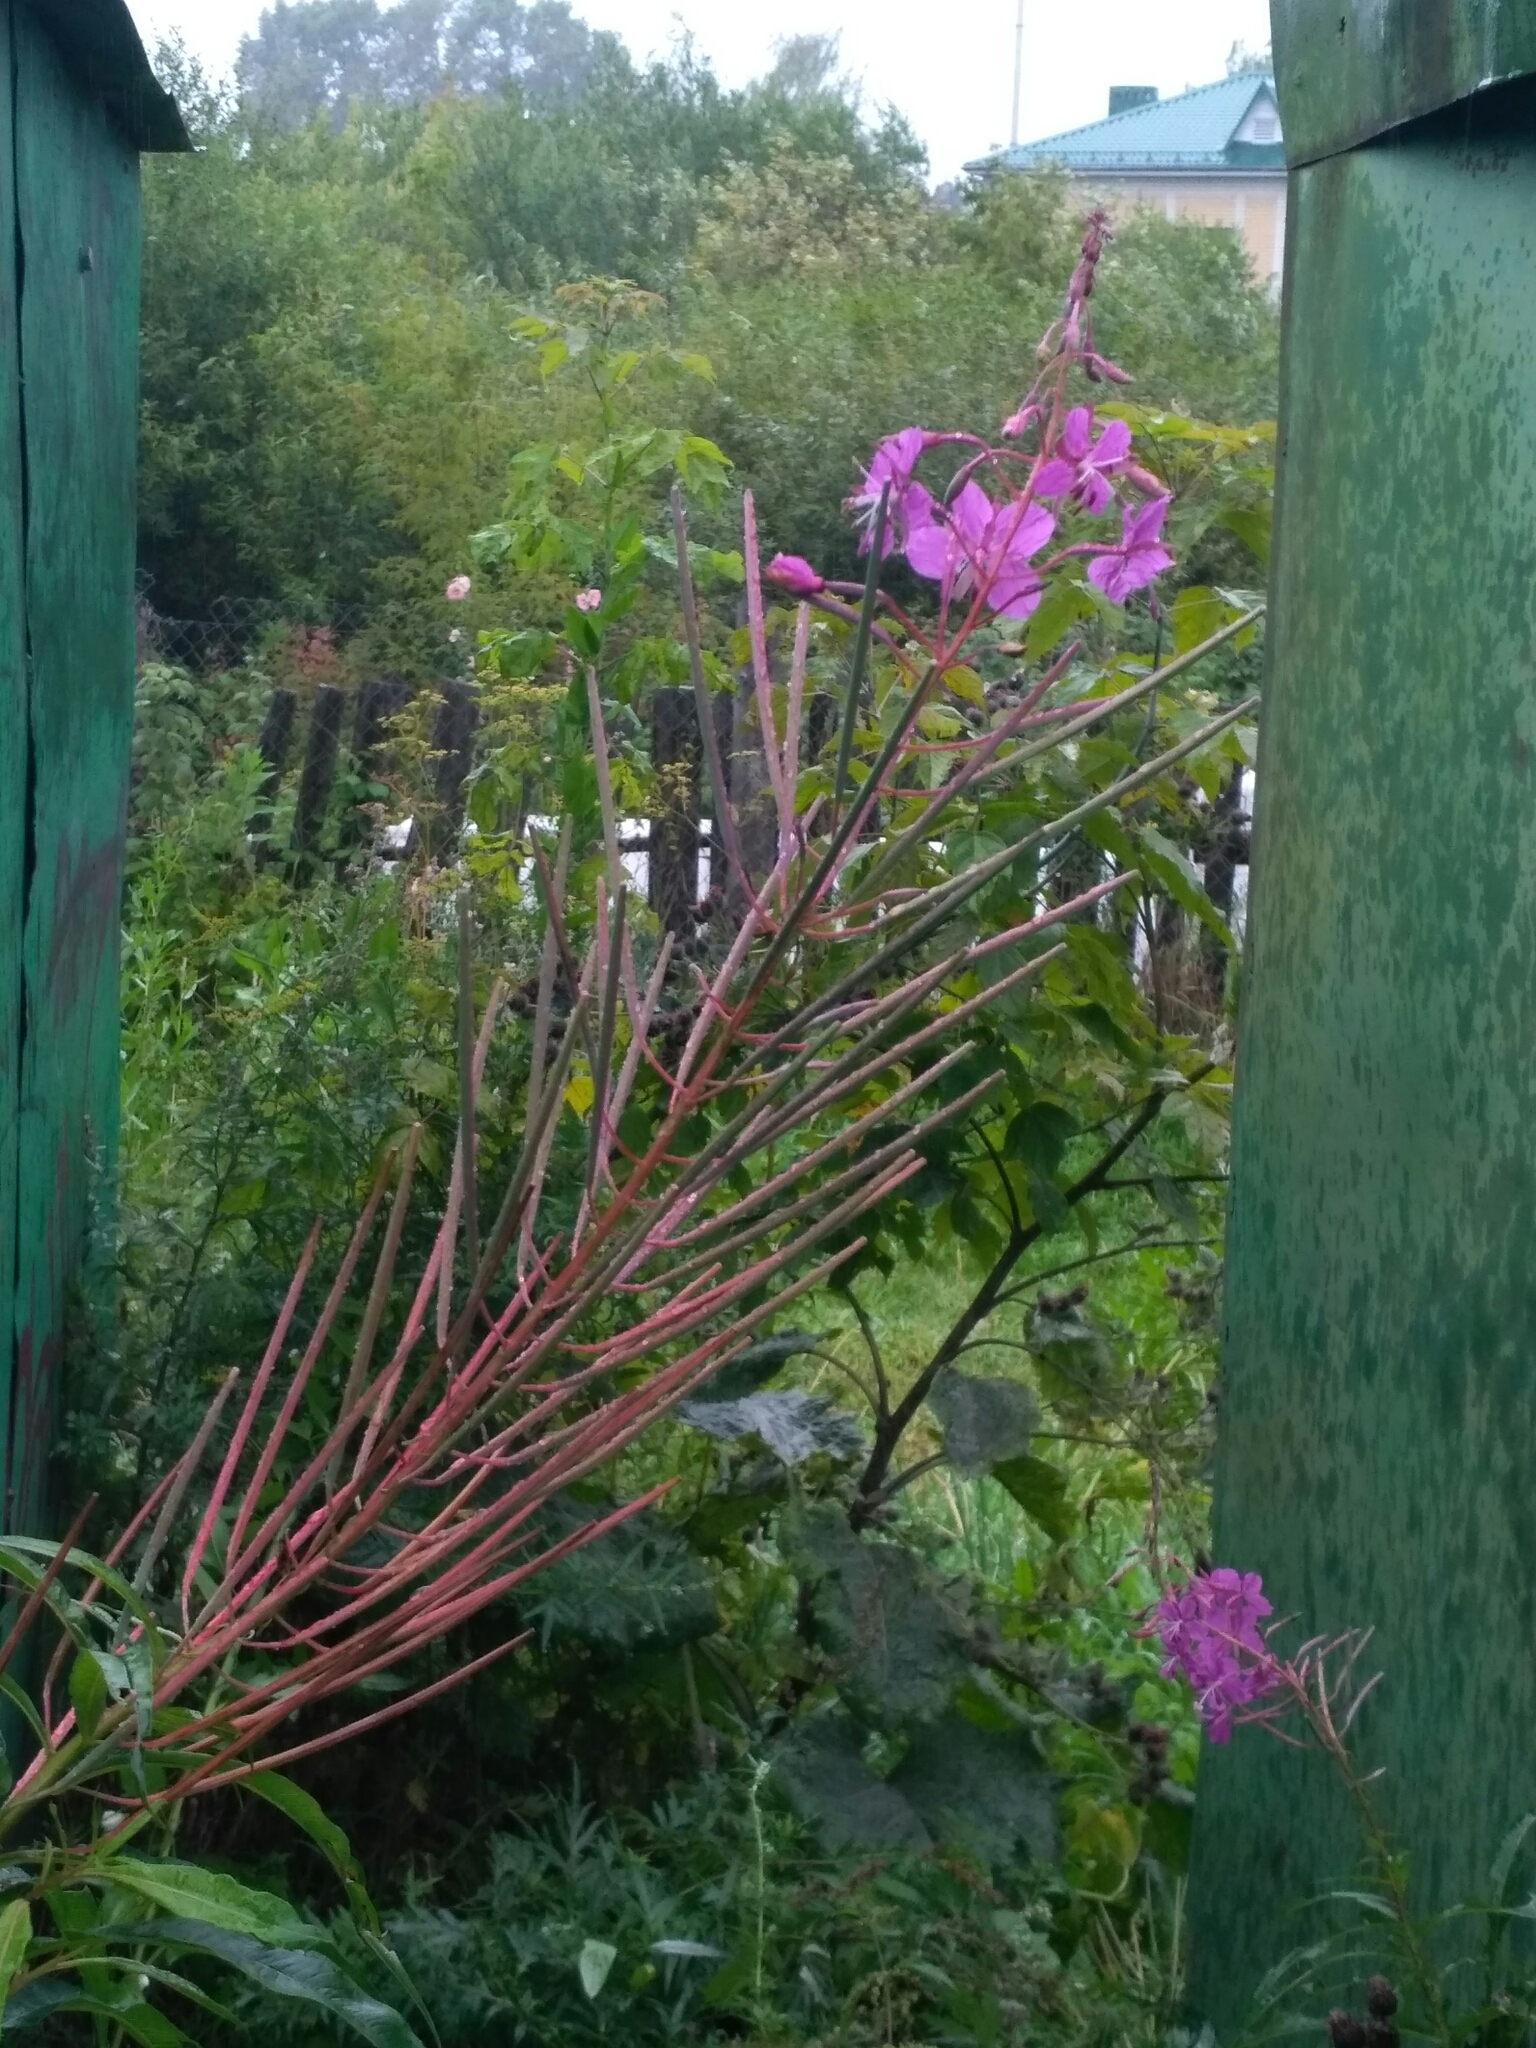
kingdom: Plantae
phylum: Tracheophyta
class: Magnoliopsida
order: Myrtales
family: Onagraceae
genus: Chamaenerion
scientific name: Chamaenerion angustifolium
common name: Fireweed
